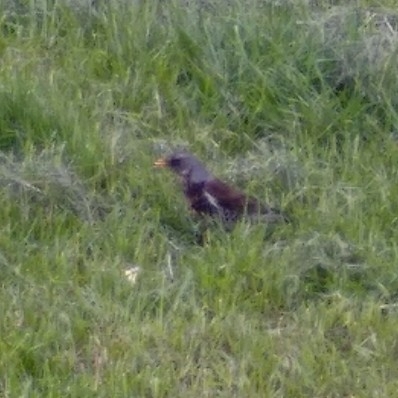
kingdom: Animalia
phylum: Chordata
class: Aves
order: Passeriformes
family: Turdidae
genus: Turdus
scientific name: Turdus pilaris
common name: Fieldfare
